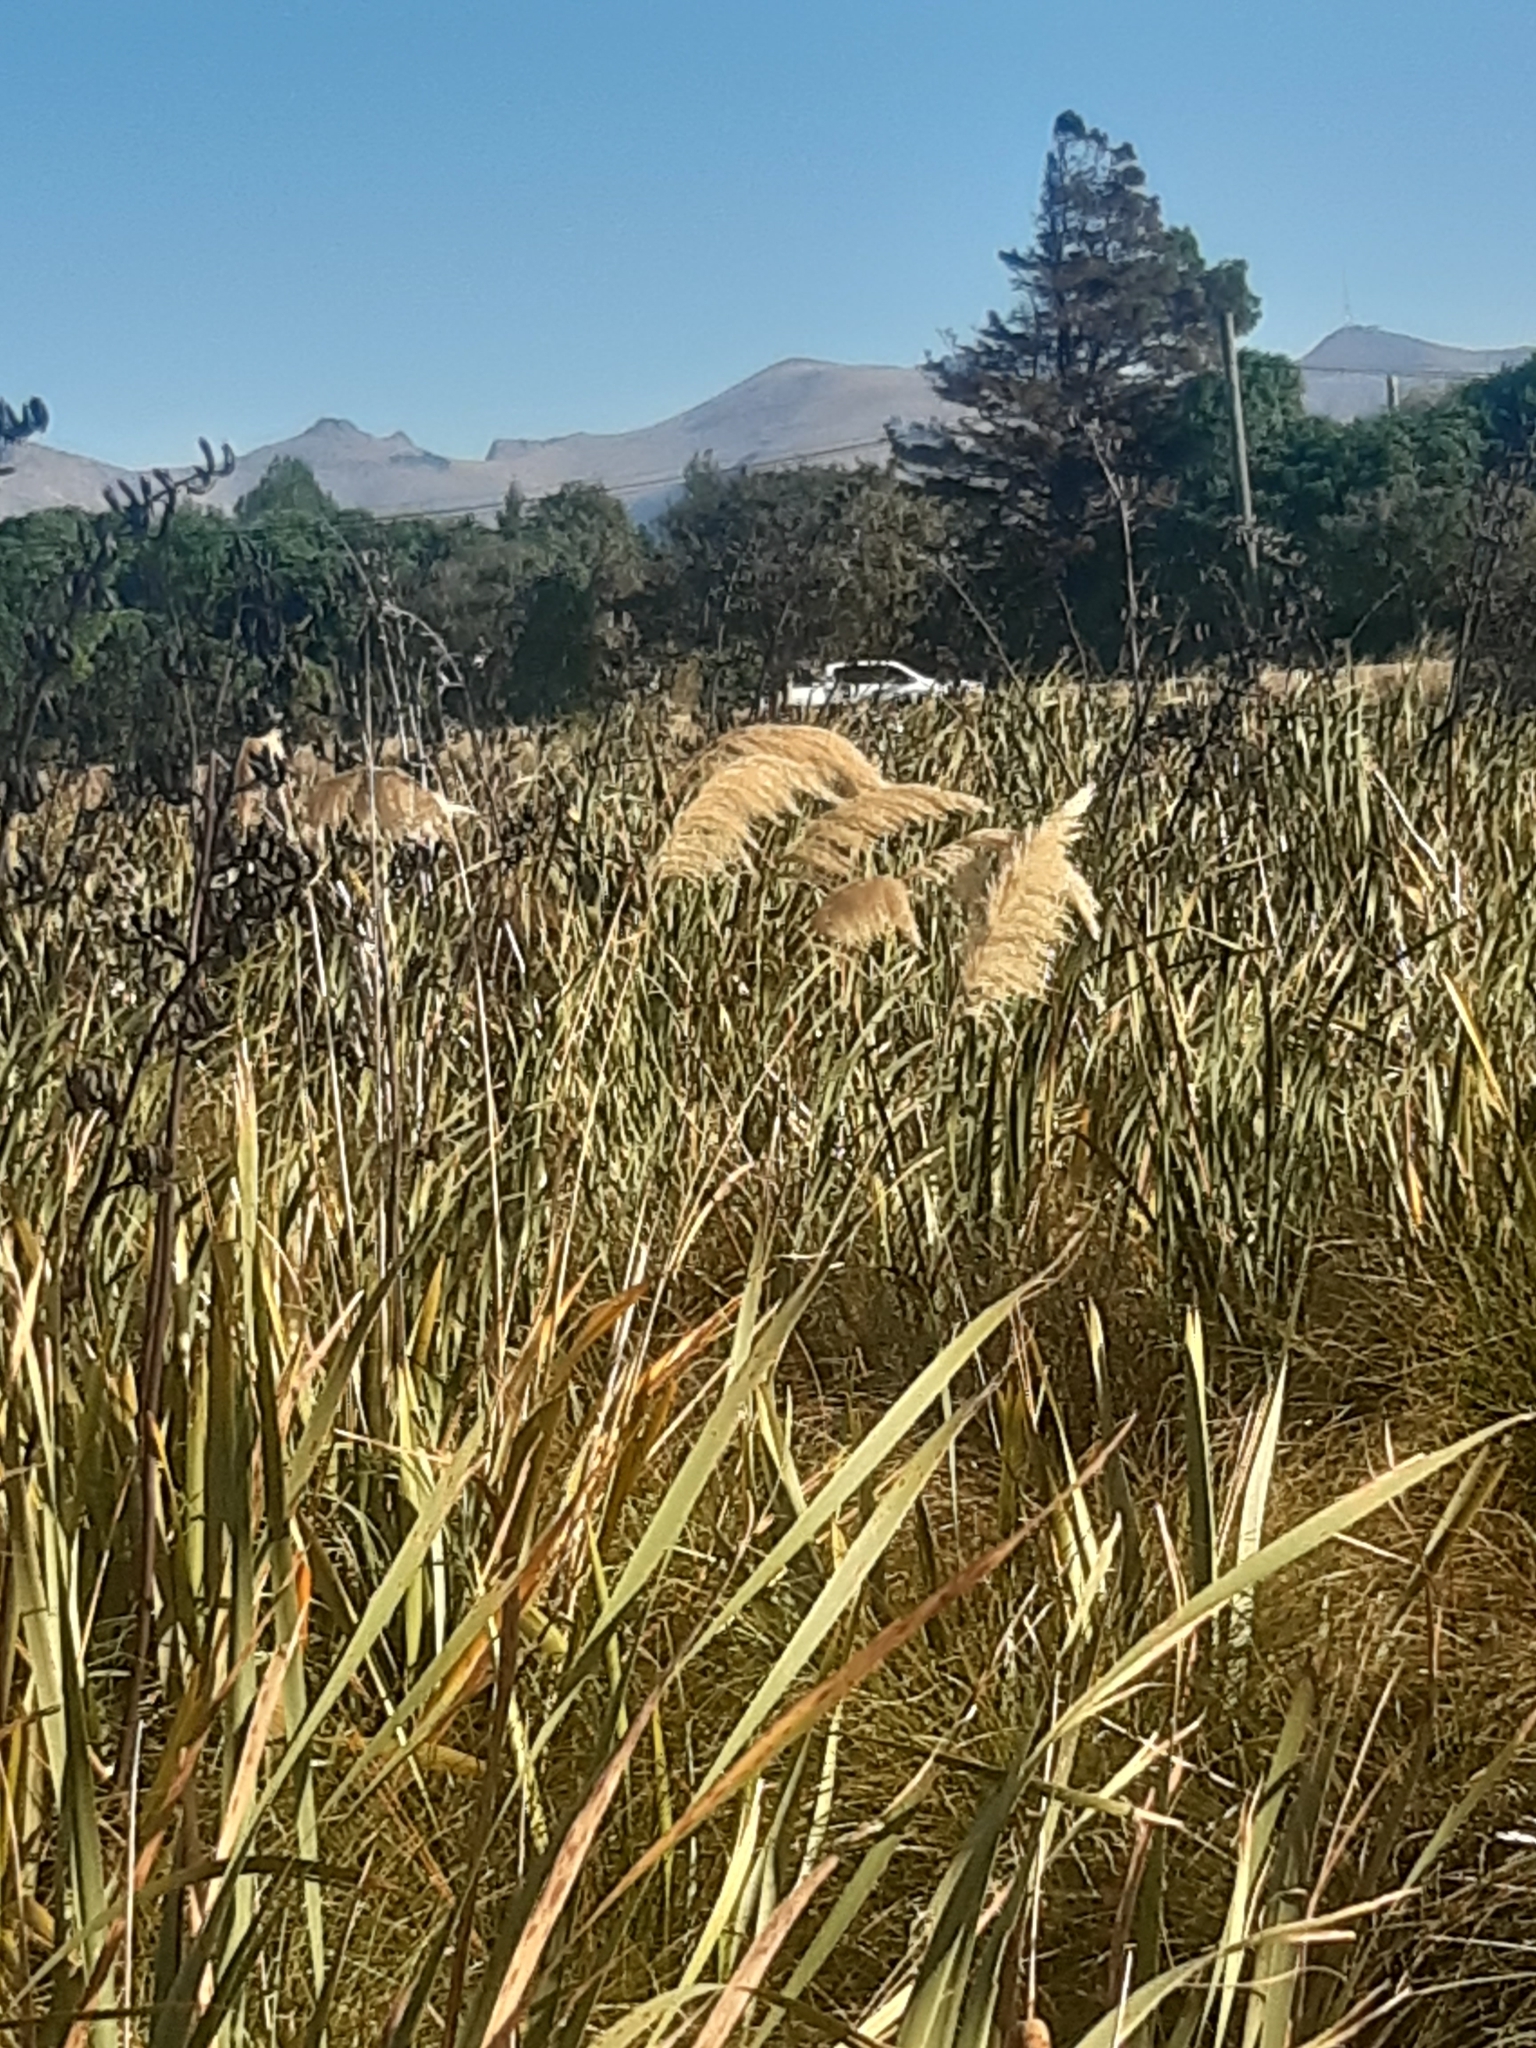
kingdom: Plantae
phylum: Tracheophyta
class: Liliopsida
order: Poales
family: Poaceae
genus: Austroderia
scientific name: Austroderia richardii
